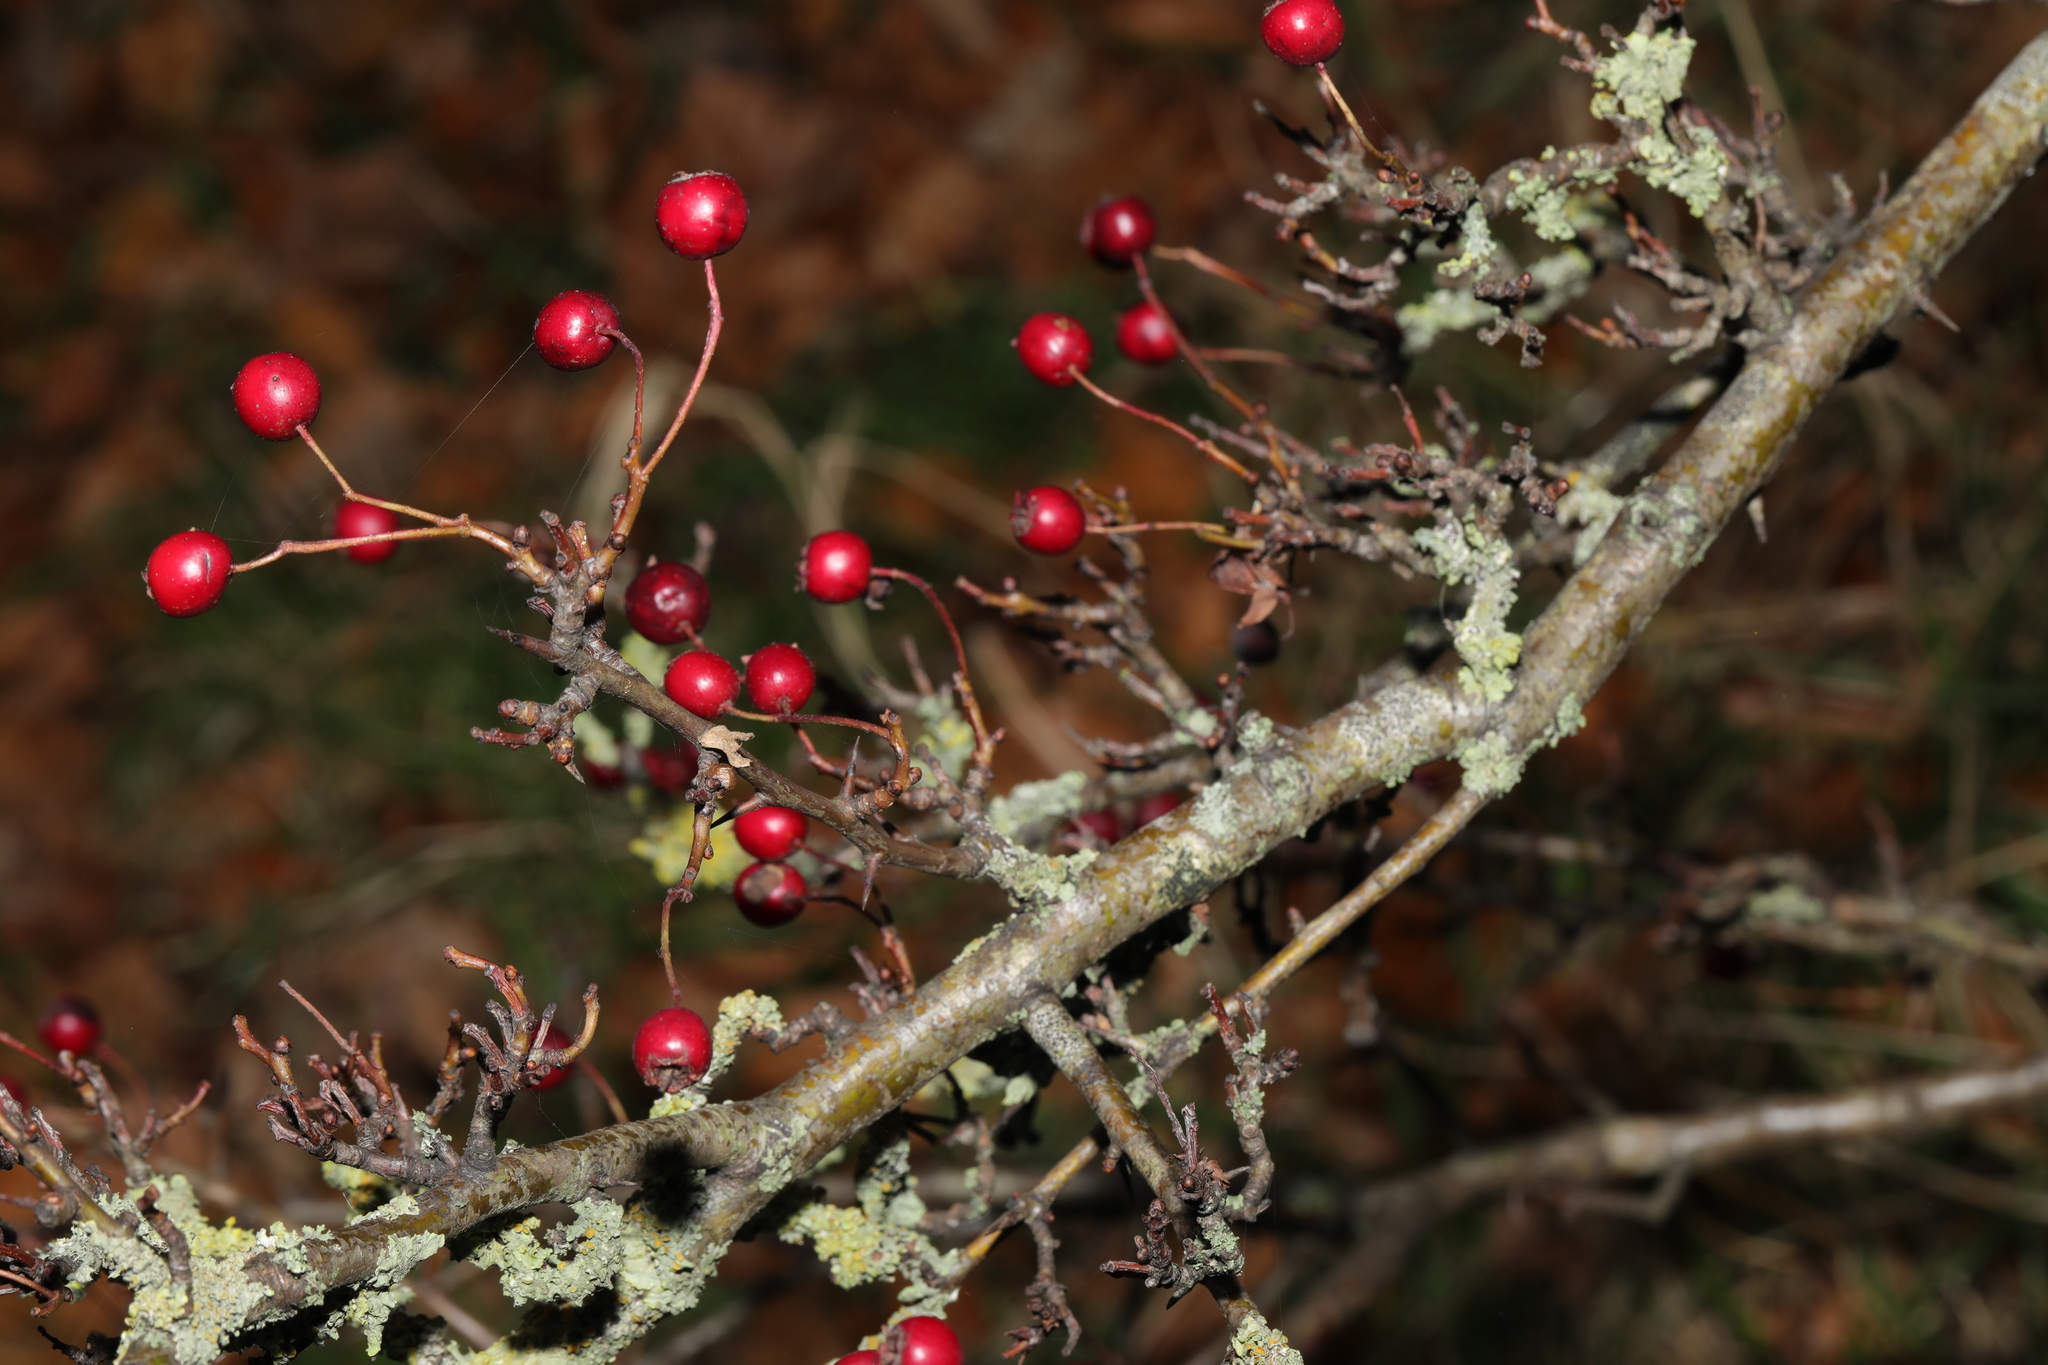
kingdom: Plantae
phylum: Tracheophyta
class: Magnoliopsida
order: Rosales
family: Rosaceae
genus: Crataegus
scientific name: Crataegus monogyna
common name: Hawthorn
